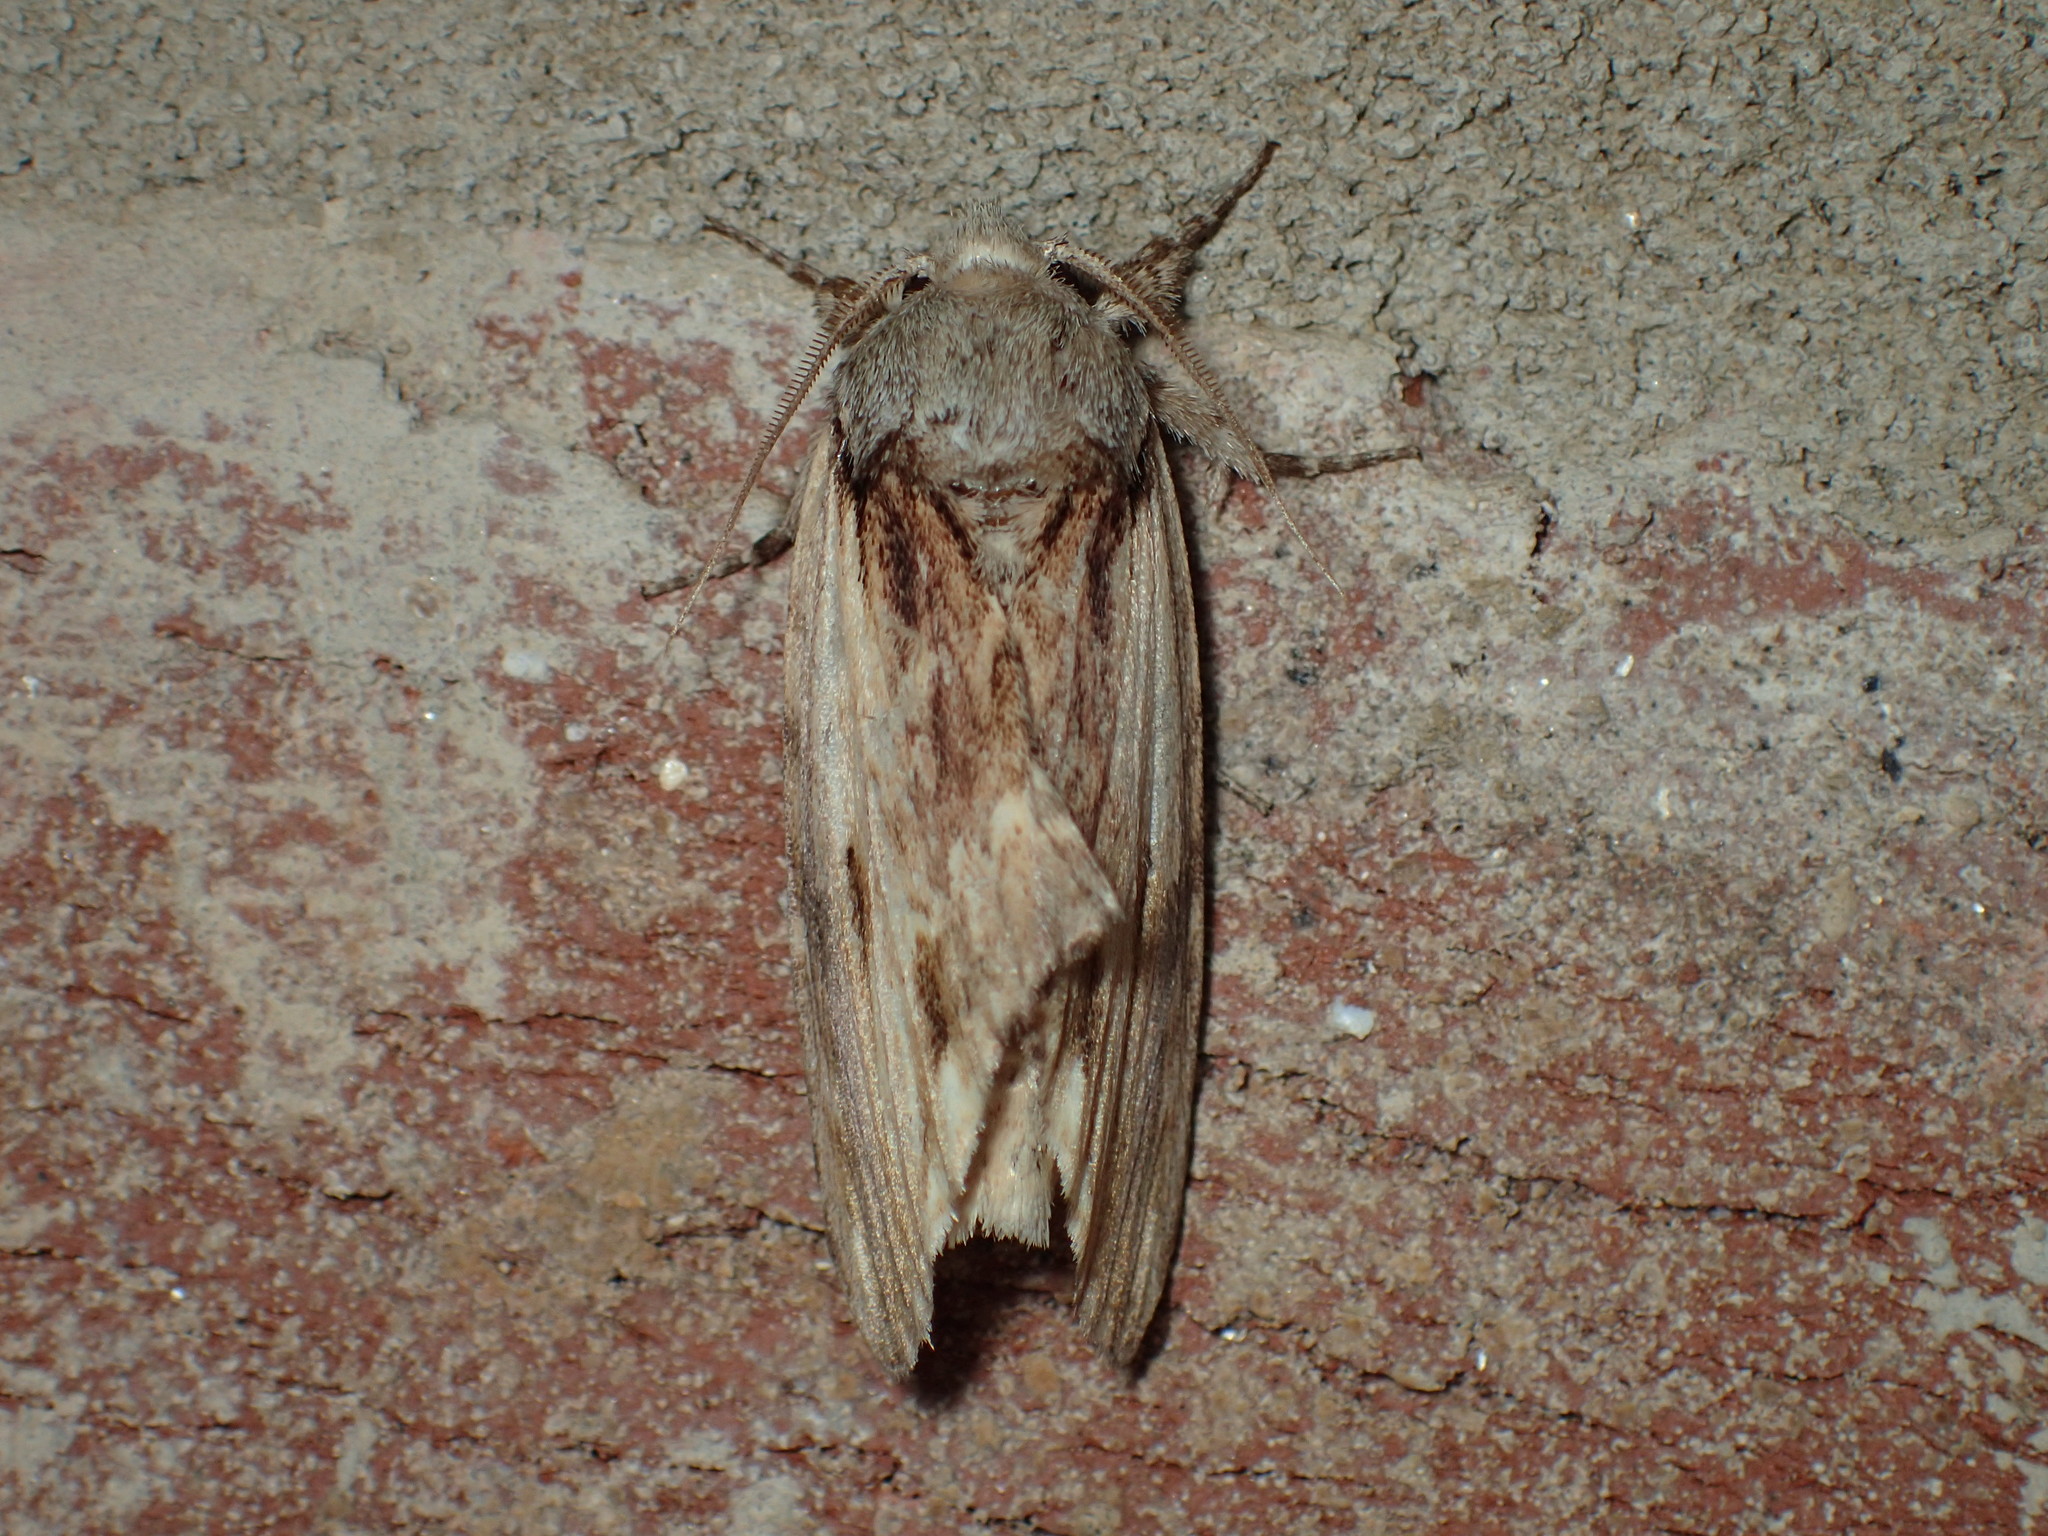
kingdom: Animalia
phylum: Arthropoda
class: Insecta
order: Lepidoptera
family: Notodontidae
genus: Schizura
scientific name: Schizura
